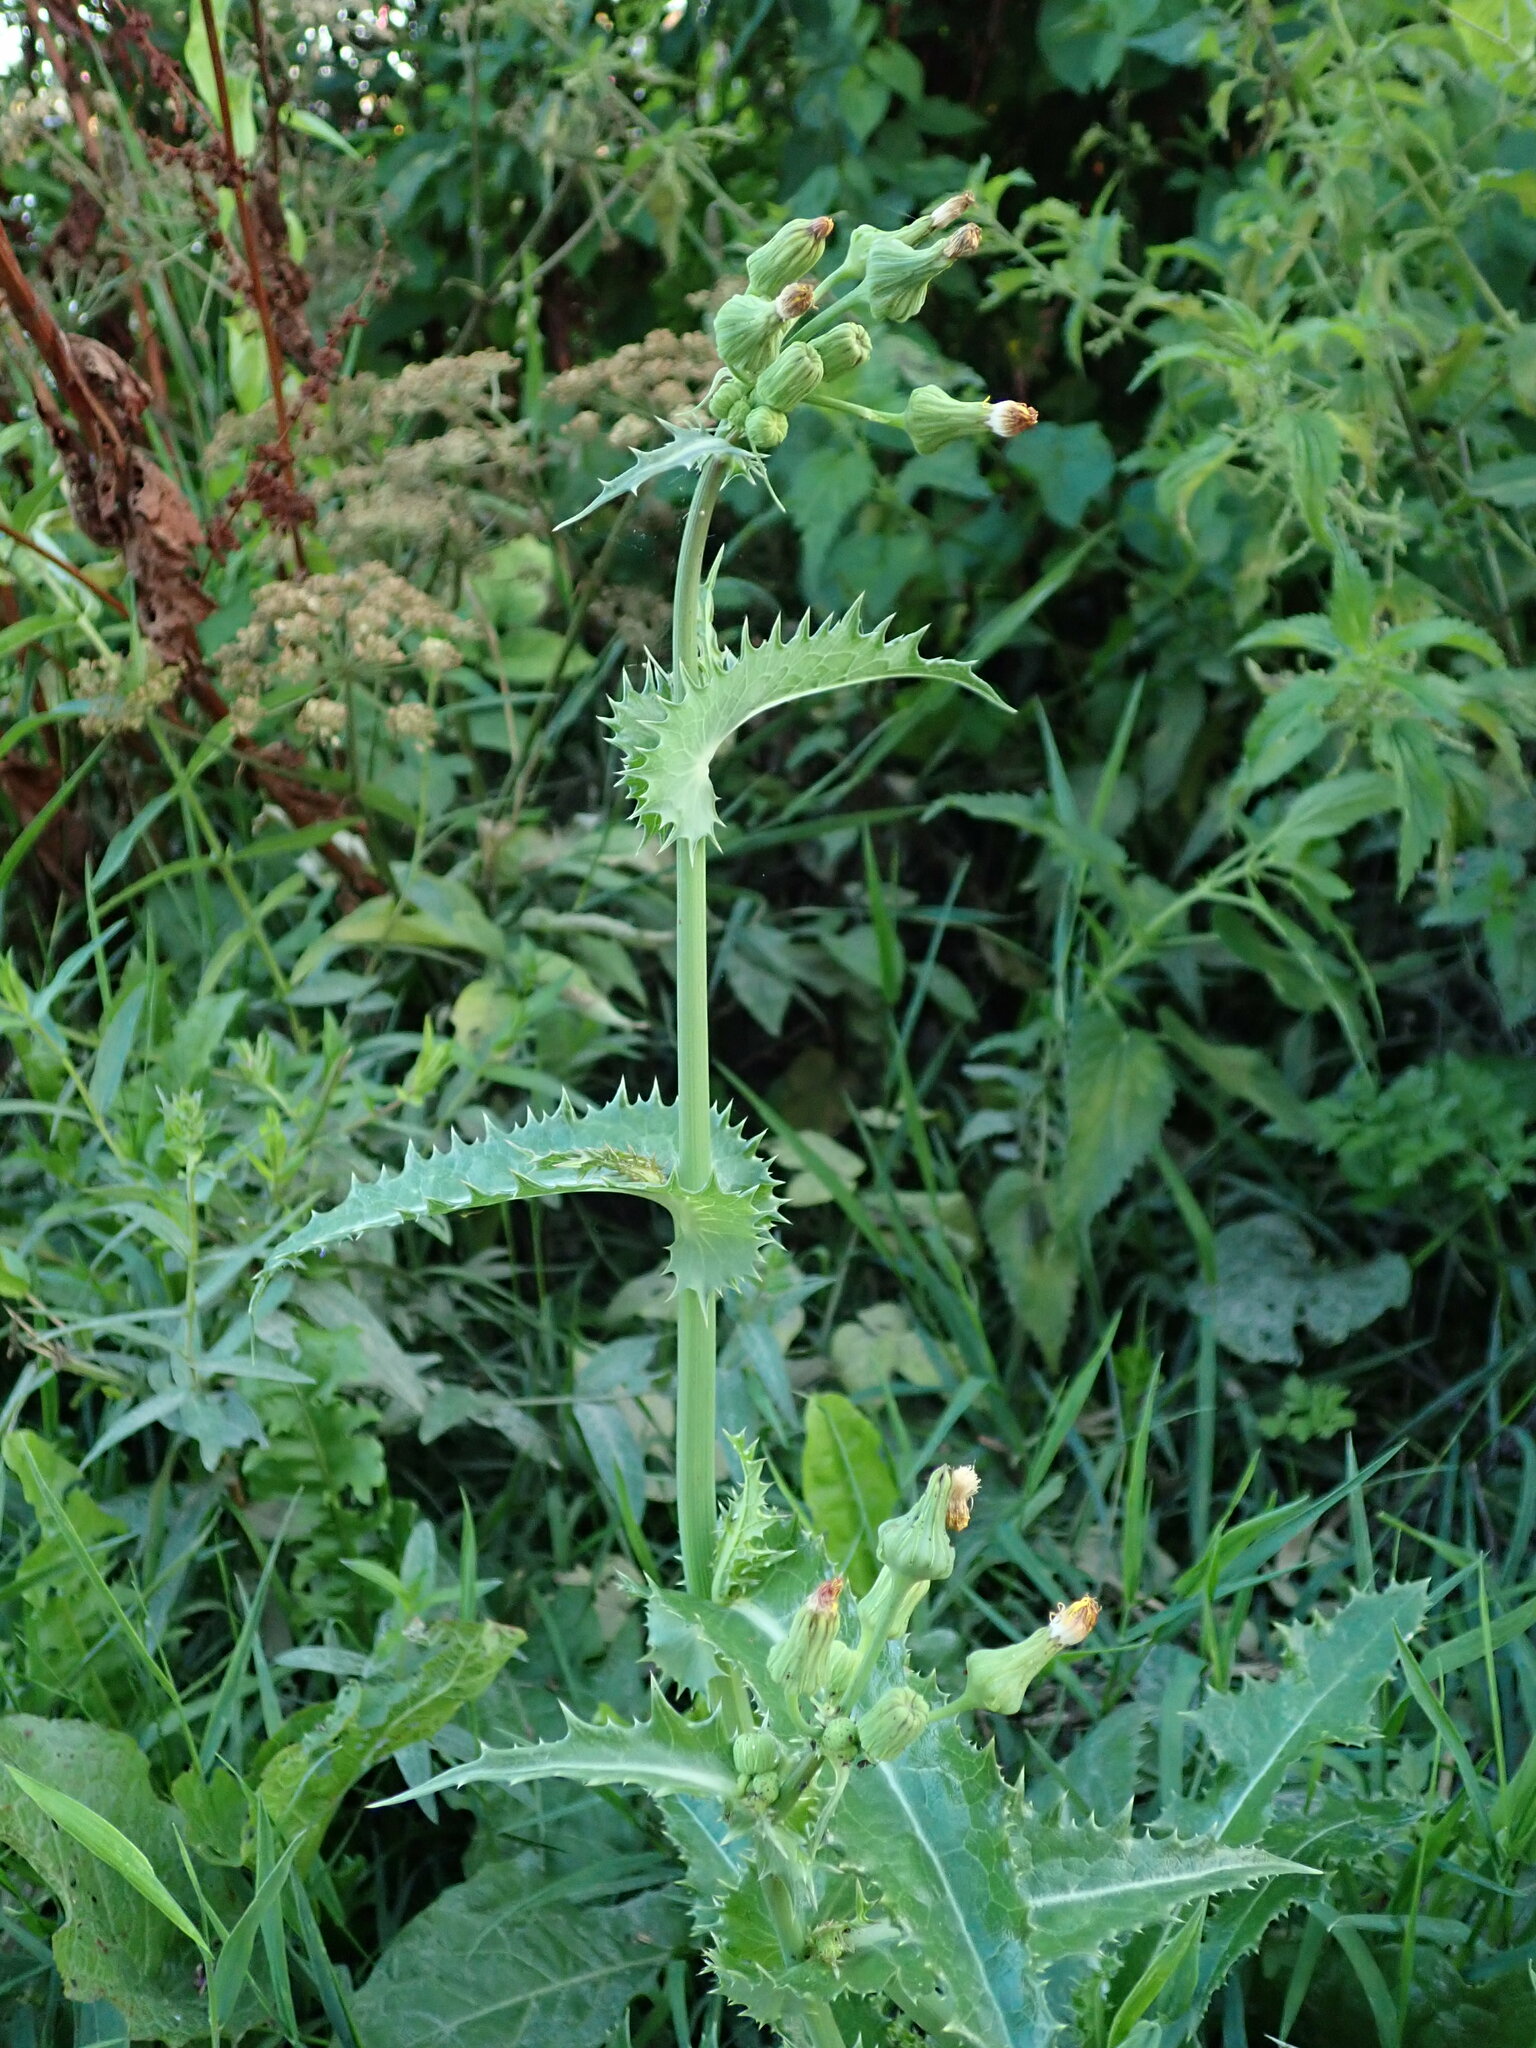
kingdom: Plantae
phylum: Tracheophyta
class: Magnoliopsida
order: Asterales
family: Asteraceae
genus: Sonchus
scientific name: Sonchus asper
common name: Prickly sow-thistle
